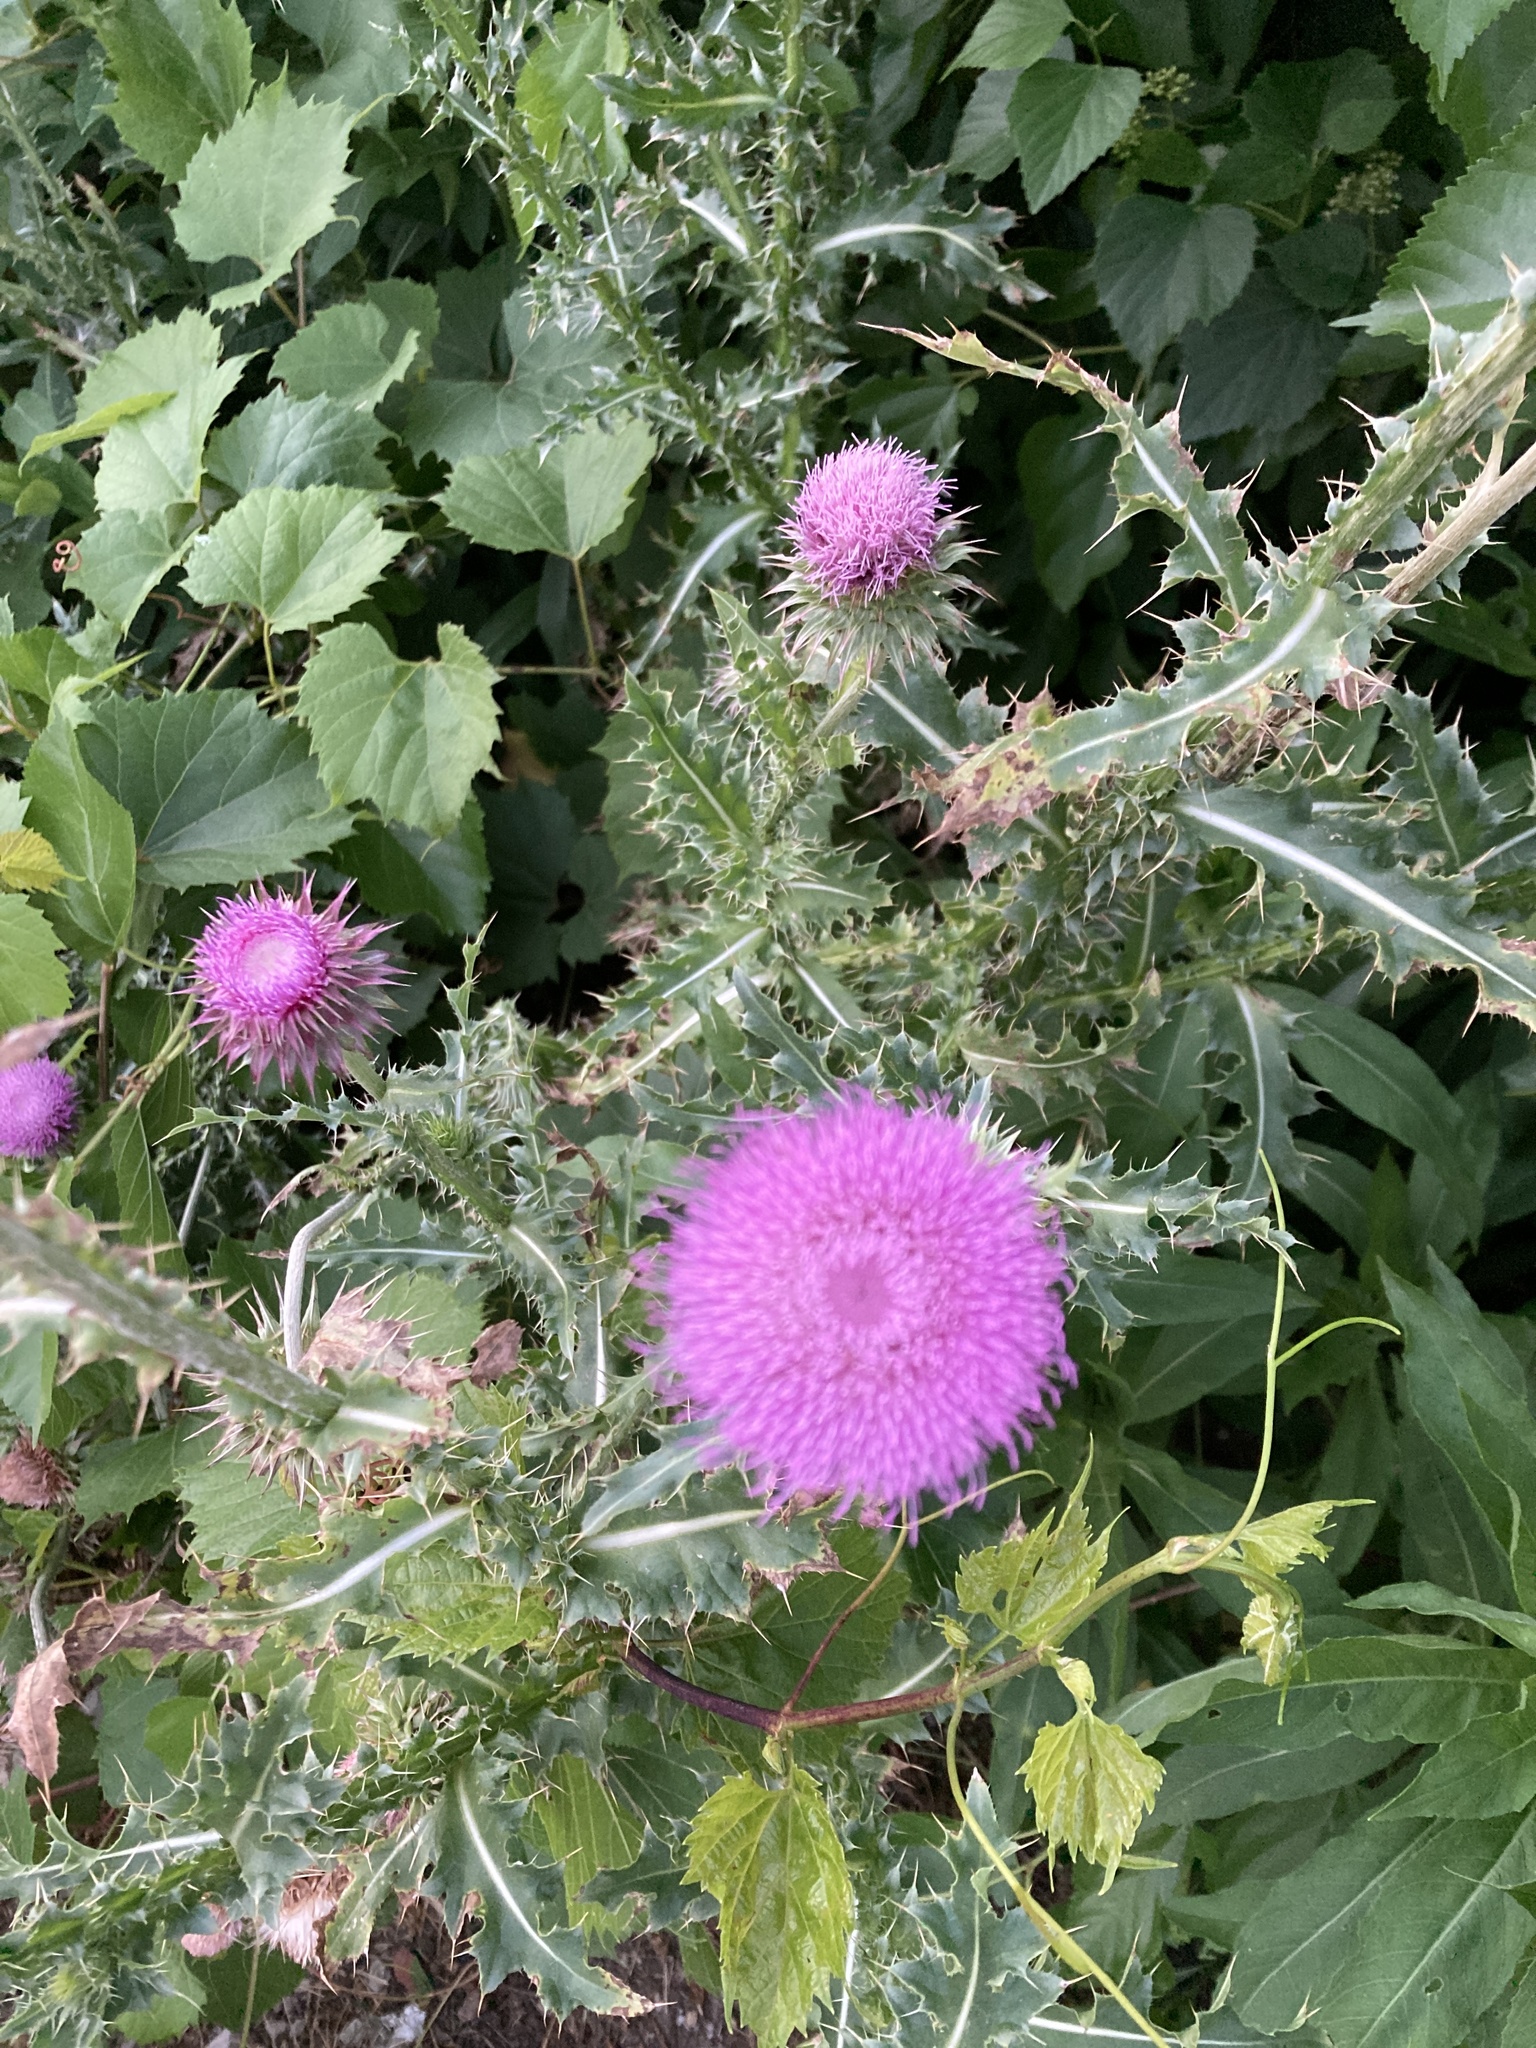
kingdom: Plantae
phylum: Tracheophyta
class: Magnoliopsida
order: Asterales
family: Asteraceae
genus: Carduus
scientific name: Carduus nutans
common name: Musk thistle
